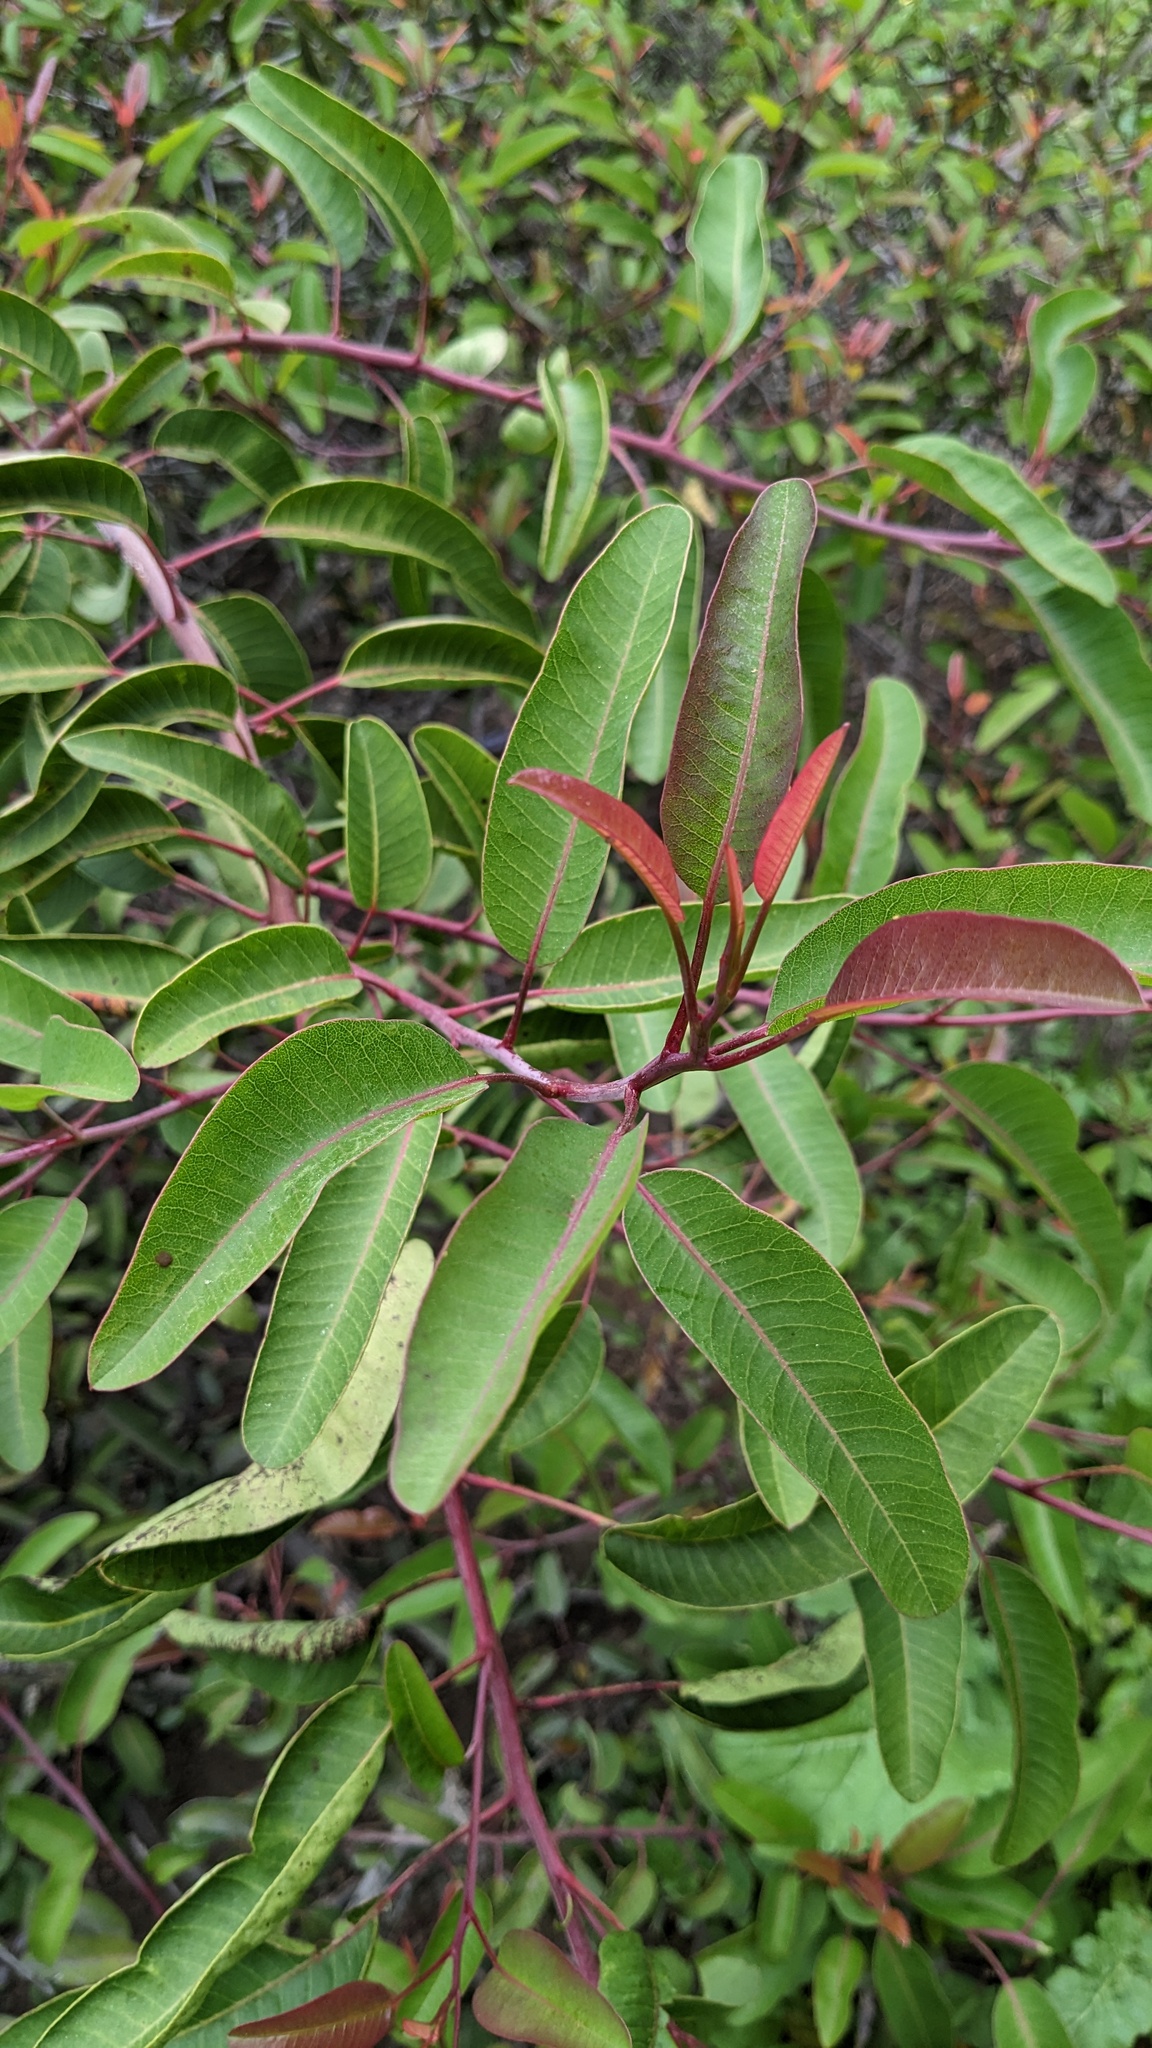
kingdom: Plantae
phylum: Tracheophyta
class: Magnoliopsida
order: Sapindales
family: Anacardiaceae
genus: Malosma
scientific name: Malosma laurina
